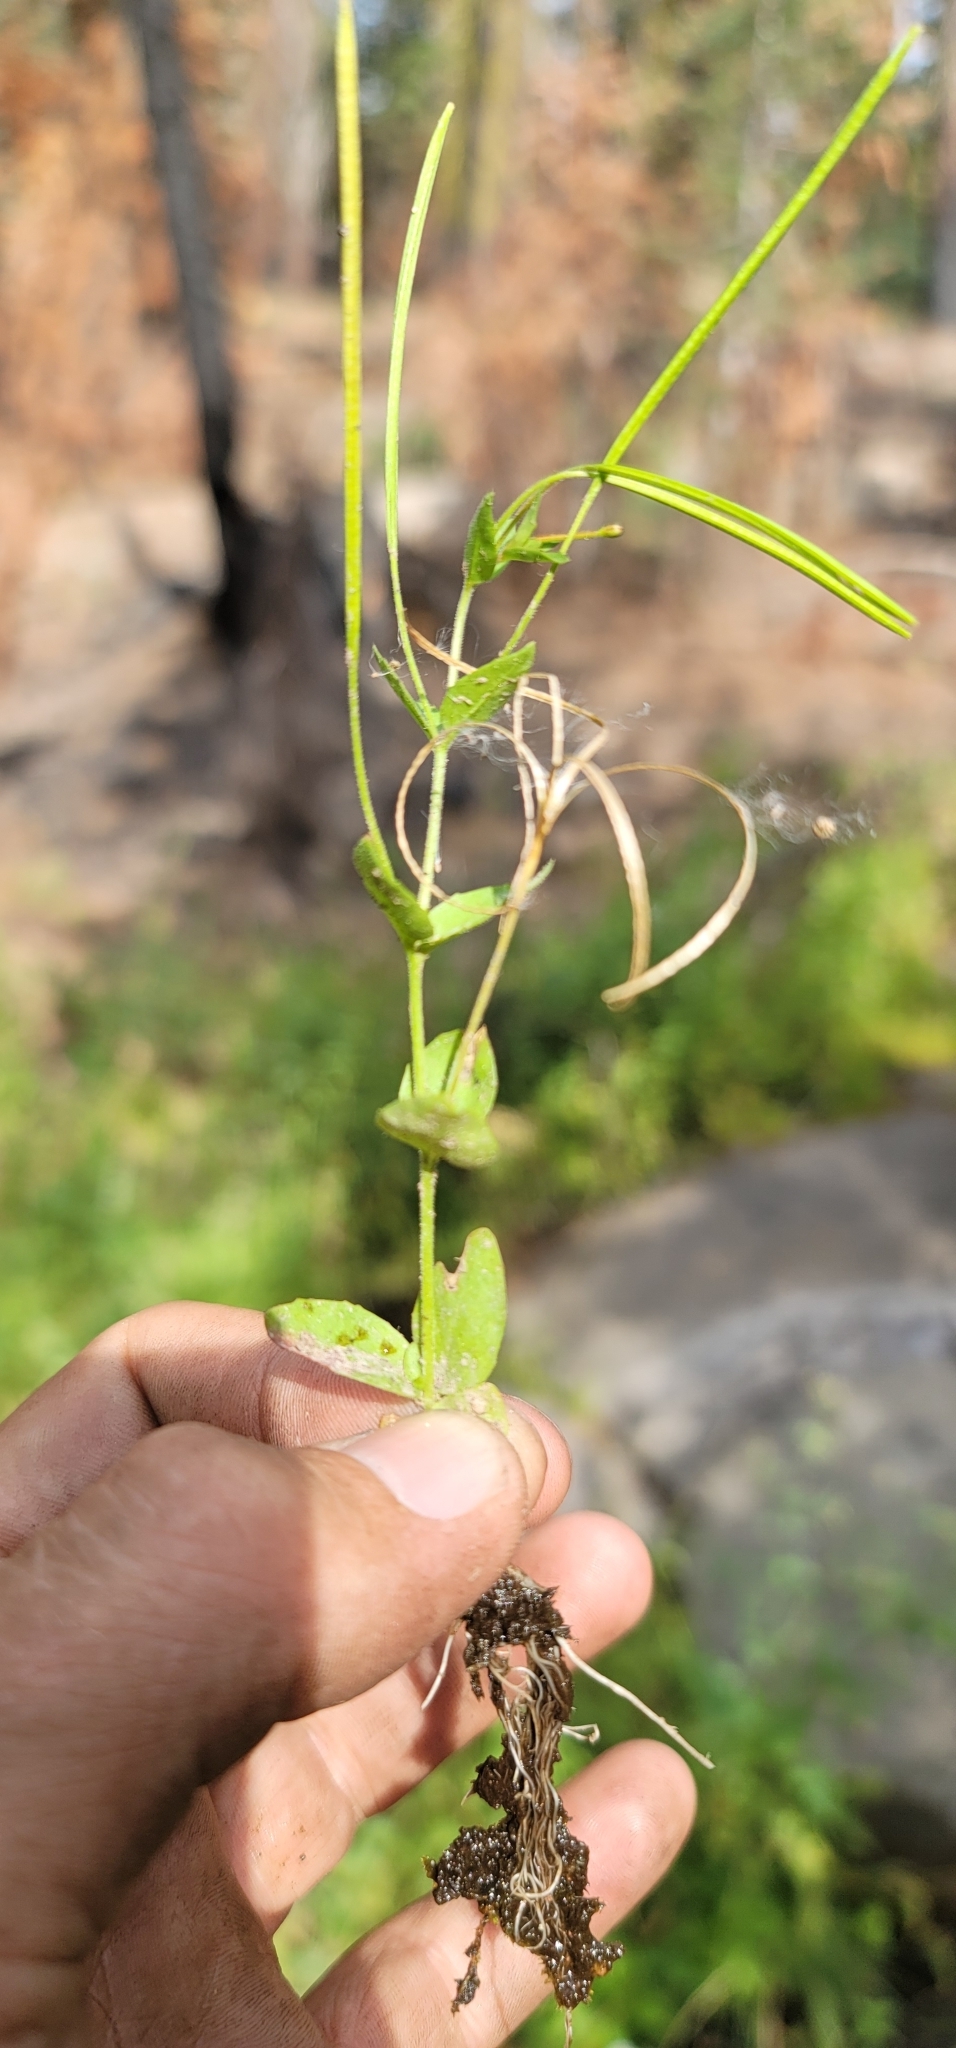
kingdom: Plantae
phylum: Tracheophyta
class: Magnoliopsida
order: Myrtales
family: Onagraceae
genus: Epilobium
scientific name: Epilobium howellii
